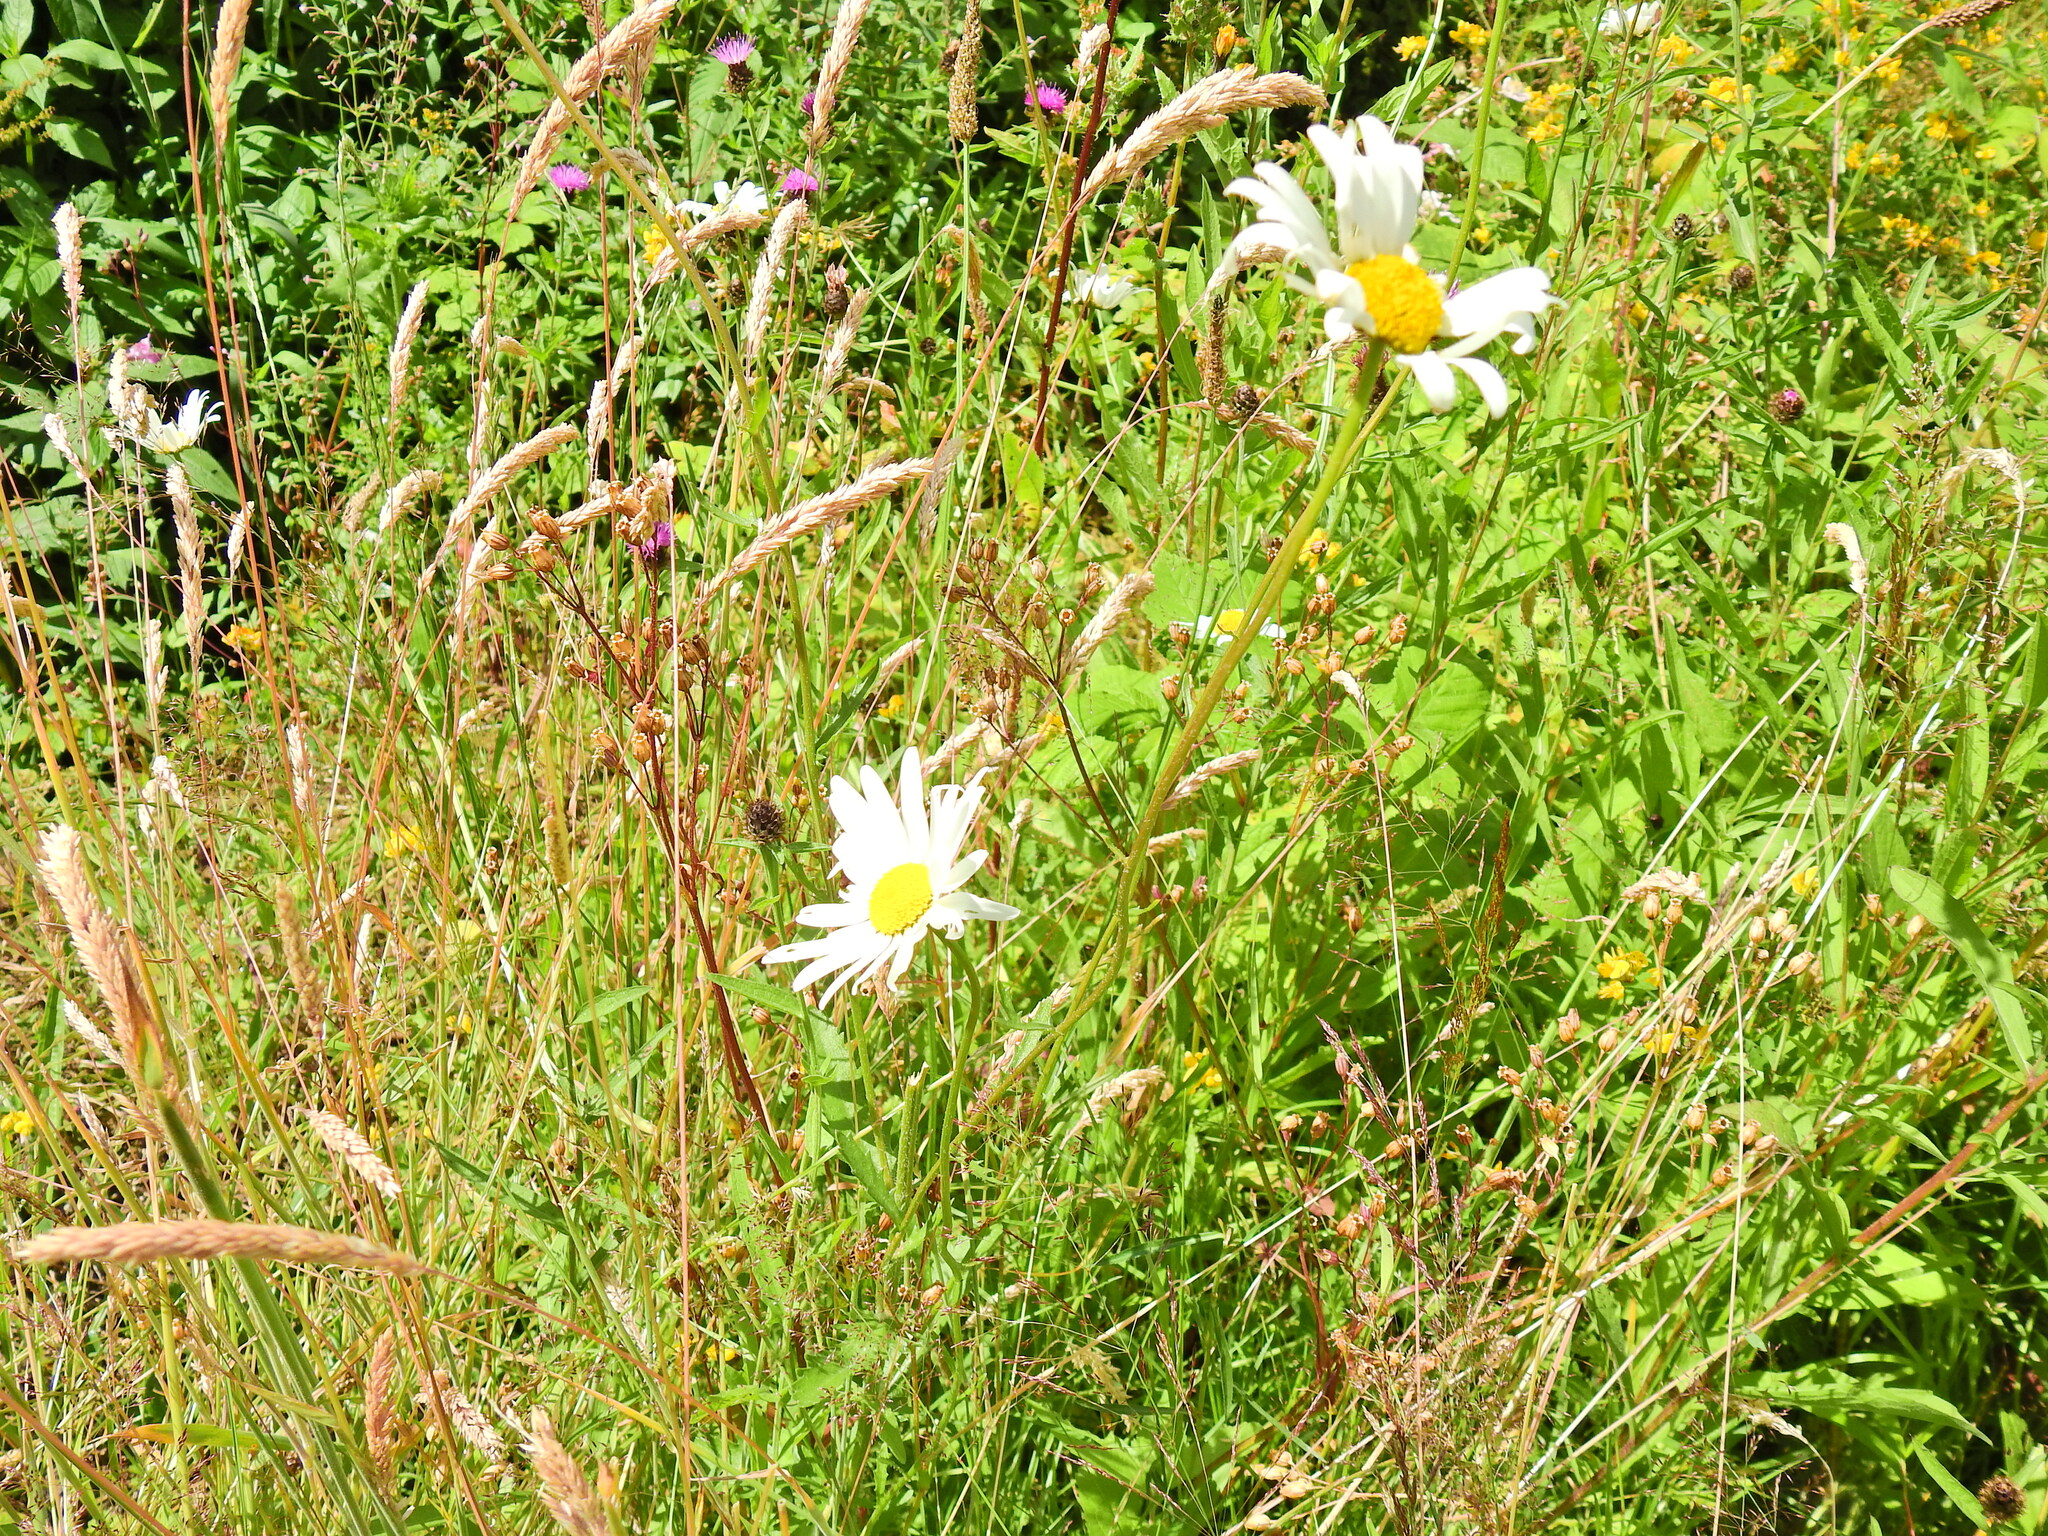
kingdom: Plantae
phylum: Tracheophyta
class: Magnoliopsida
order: Asterales
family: Asteraceae
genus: Leucanthemum
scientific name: Leucanthemum vulgare
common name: Oxeye daisy
